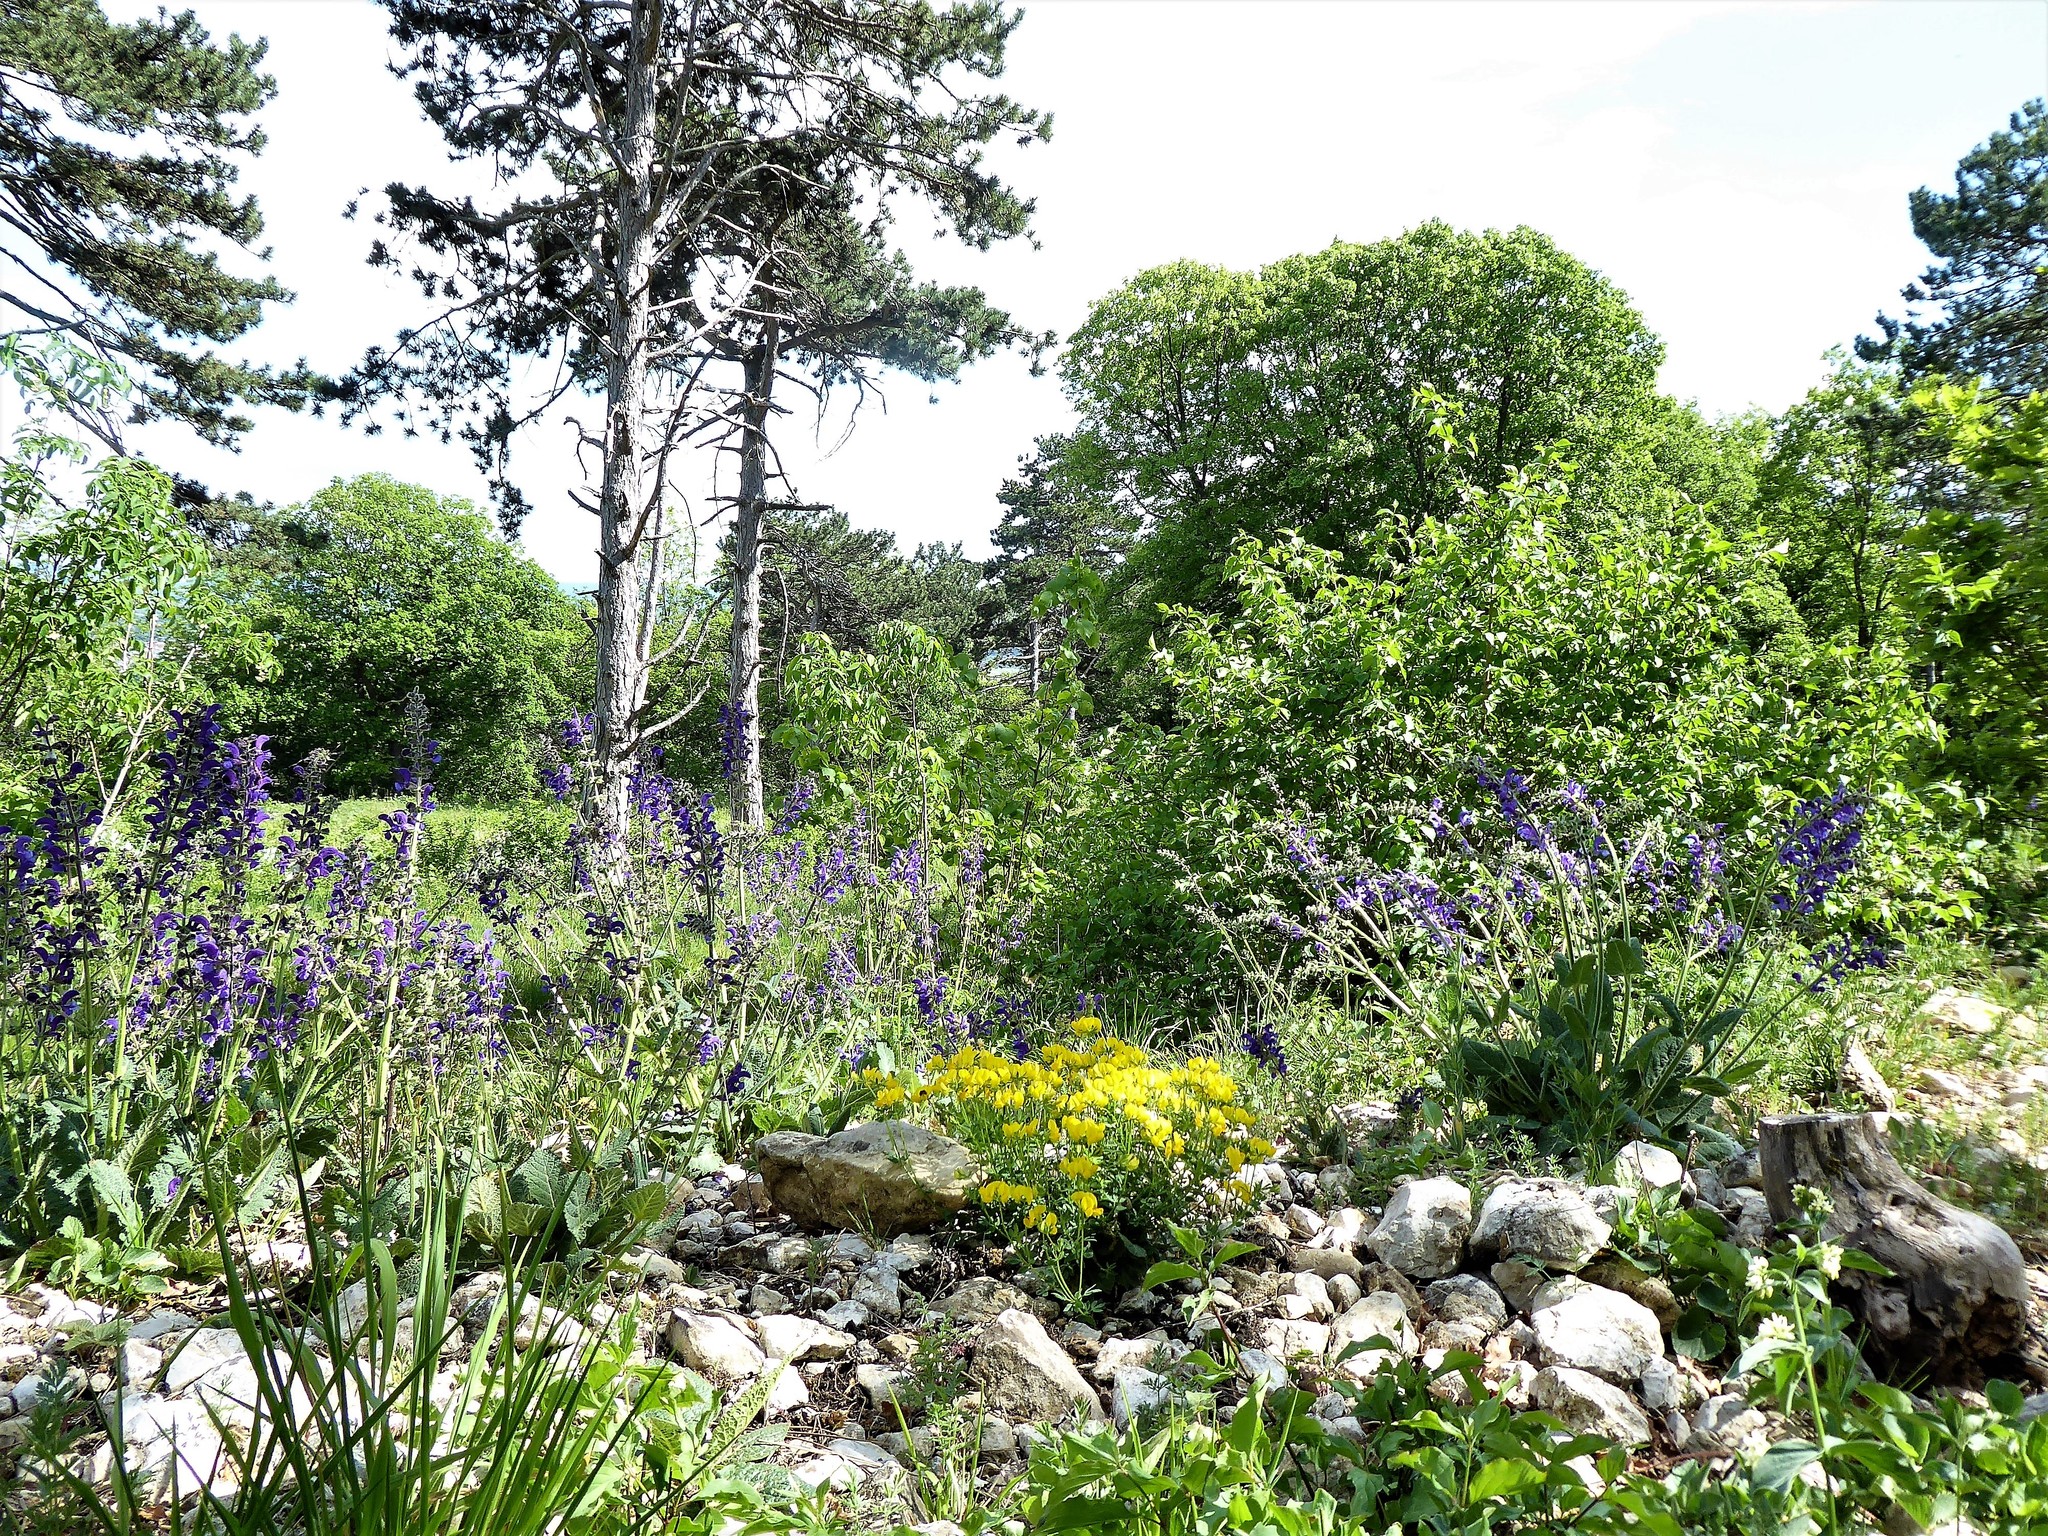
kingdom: Plantae
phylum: Tracheophyta
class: Magnoliopsida
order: Fabales
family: Fabaceae
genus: Lotus
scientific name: Lotus corniculatus
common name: Common bird's-foot-trefoil
